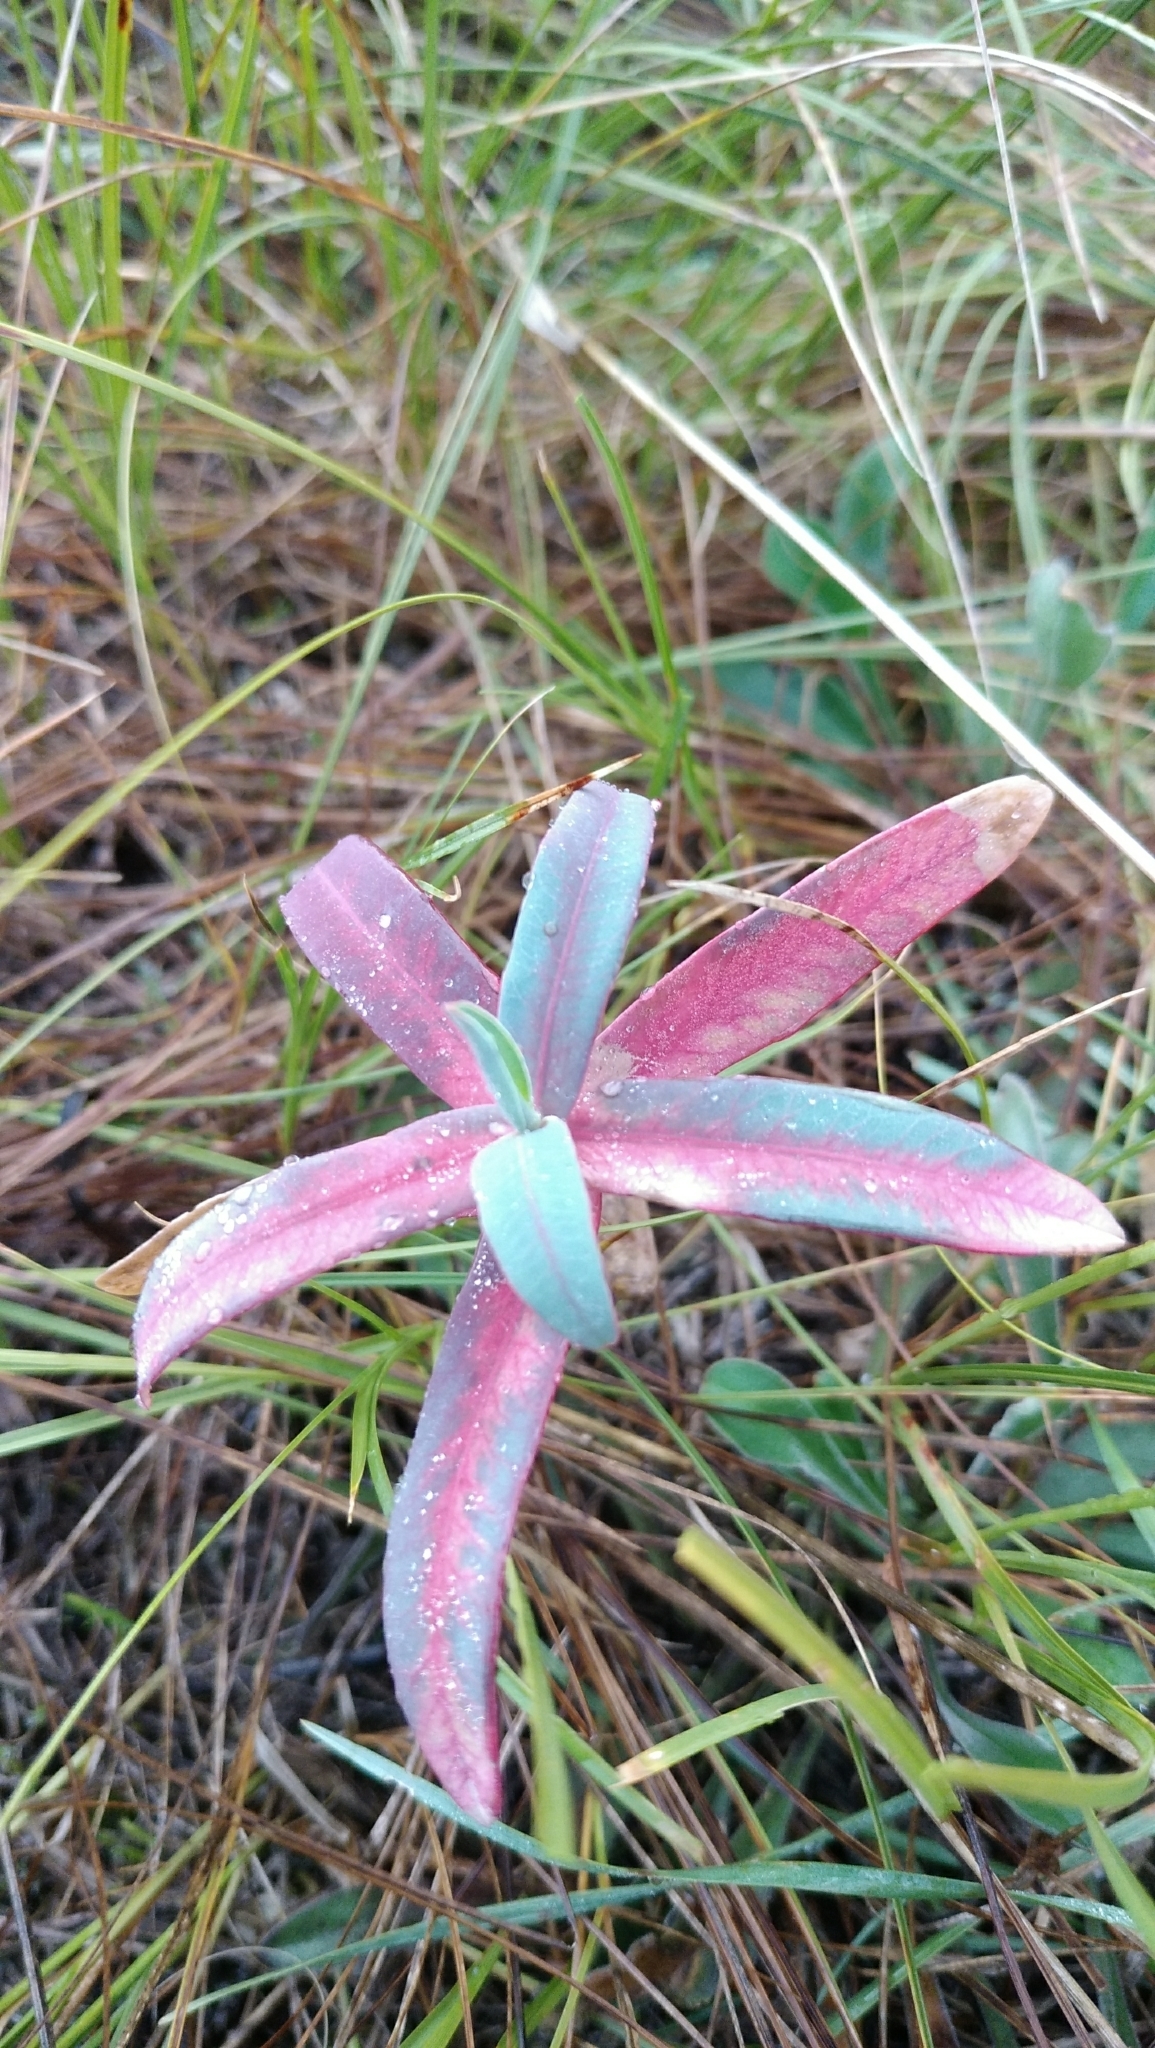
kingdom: Plantae
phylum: Tracheophyta
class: Magnoliopsida
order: Malpighiales
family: Euphorbiaceae
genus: Euphorbia
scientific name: Euphorbia stepposa
